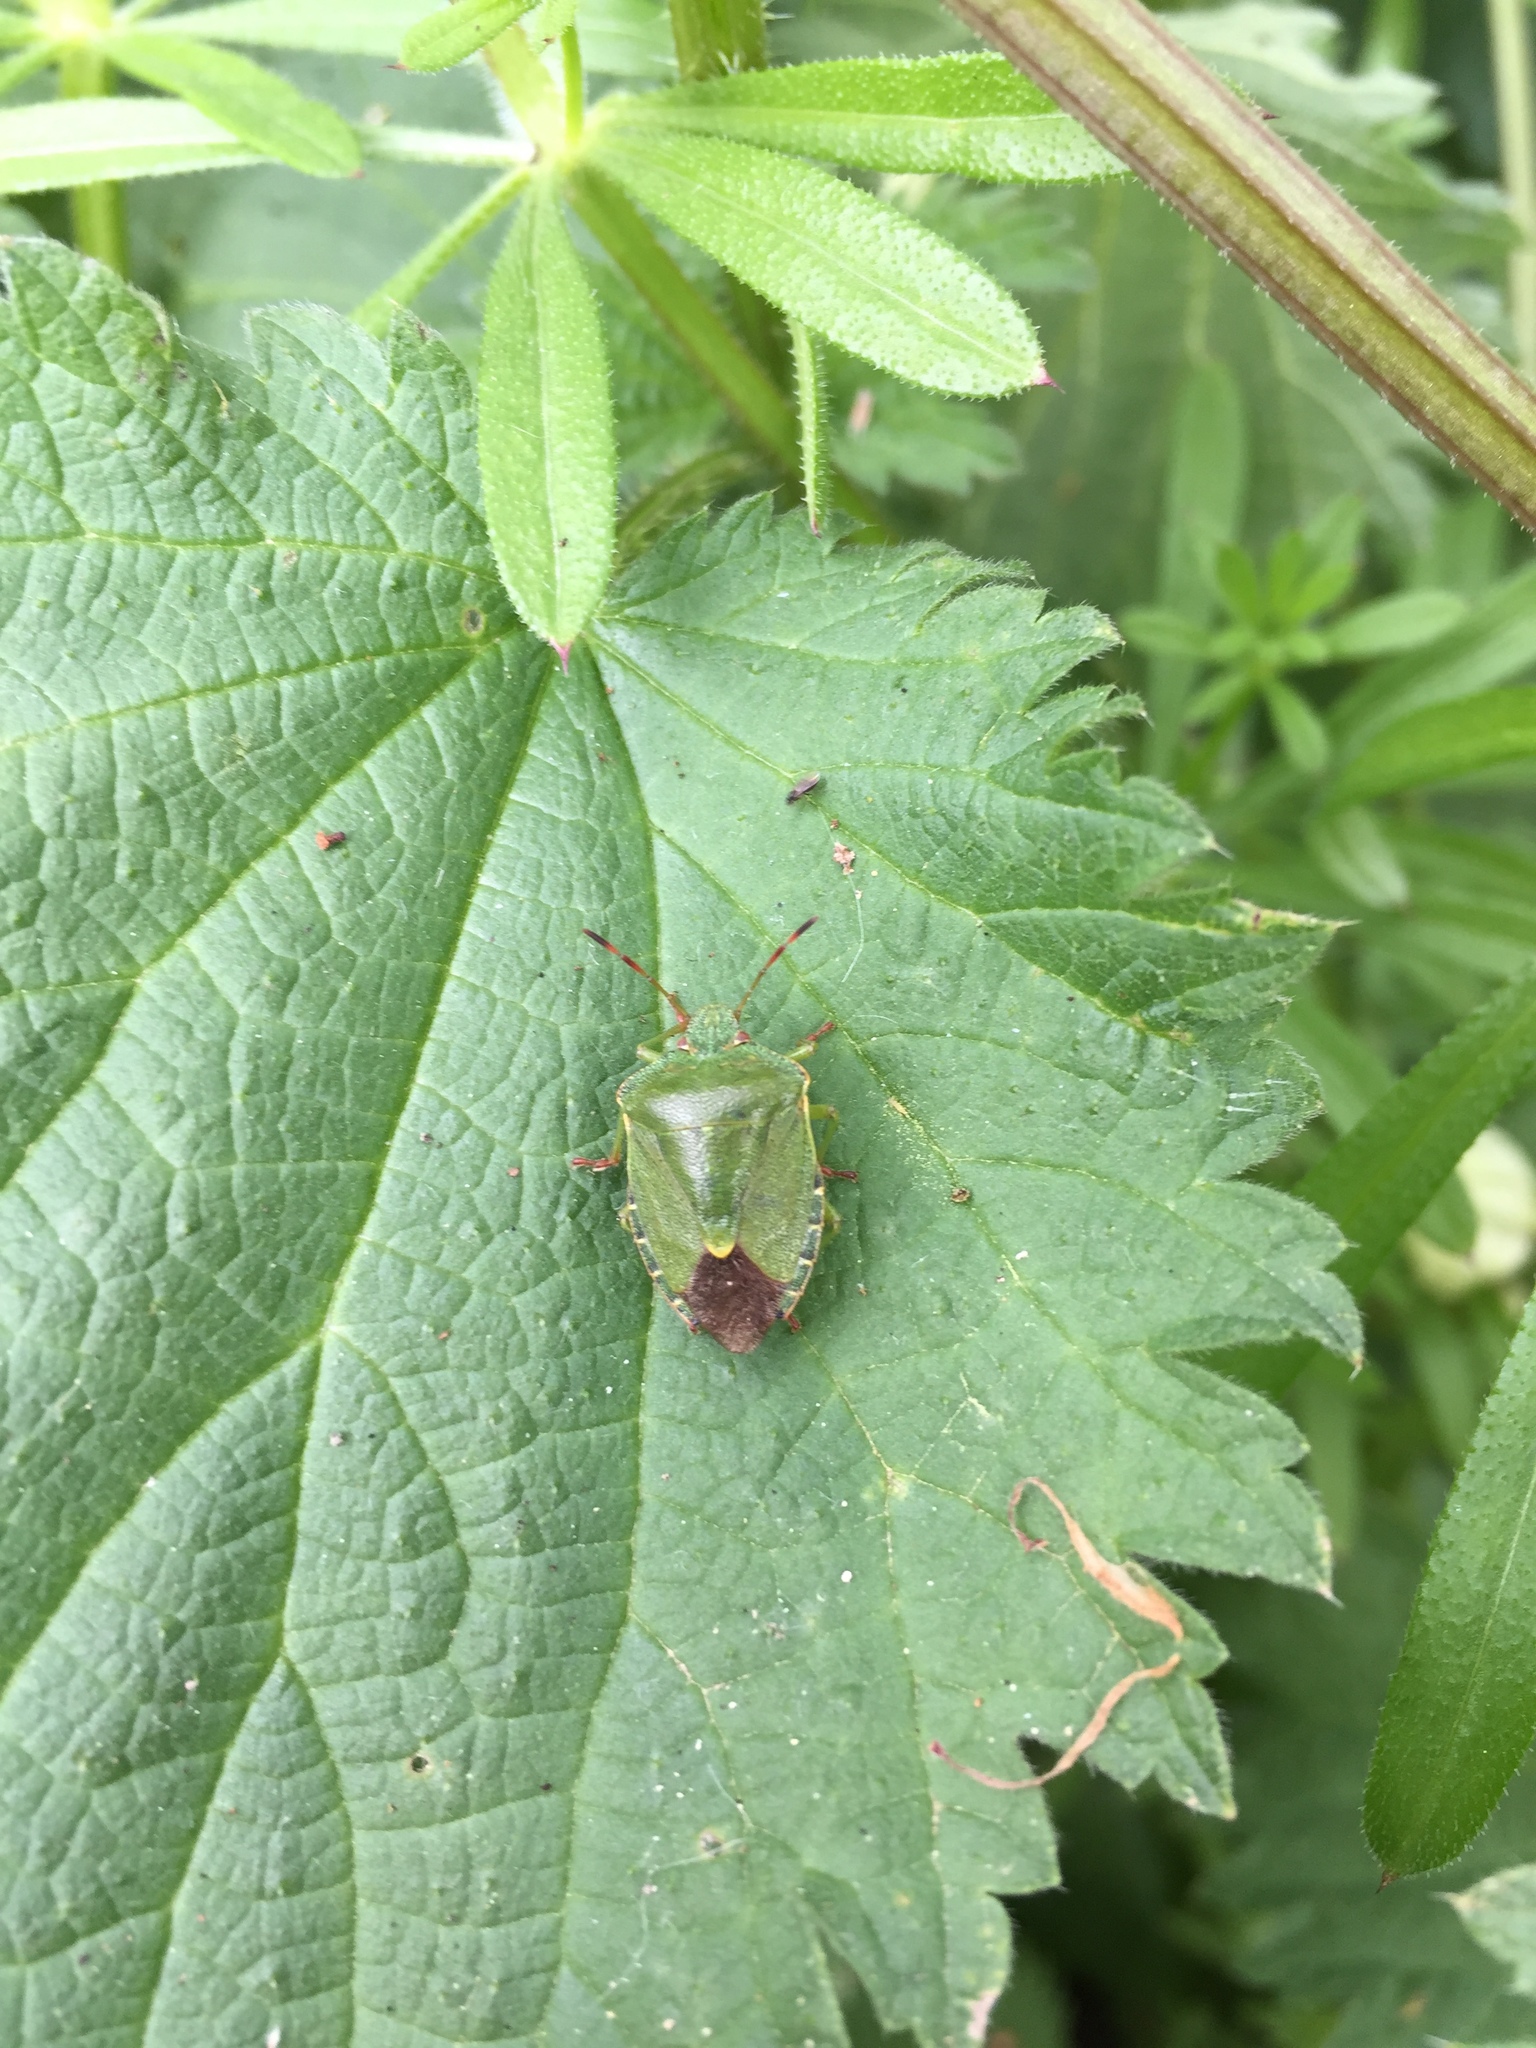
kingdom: Animalia
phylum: Arthropoda
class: Insecta
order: Hemiptera
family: Pentatomidae
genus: Palomena
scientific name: Palomena prasina
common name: Green shieldbug
